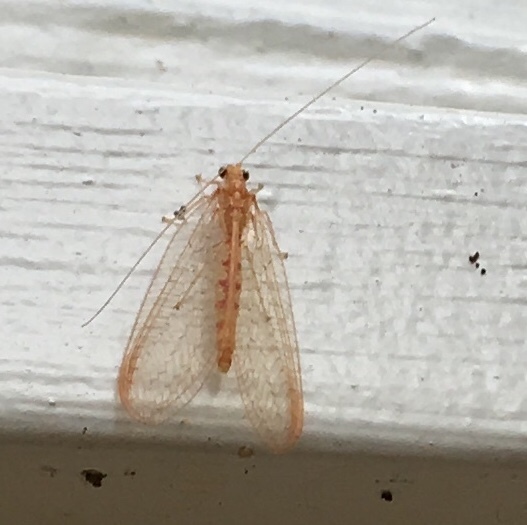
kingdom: Animalia
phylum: Arthropoda
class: Insecta
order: Neuroptera
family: Chrysopidae
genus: Chrysoperla
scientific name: Chrysoperla
